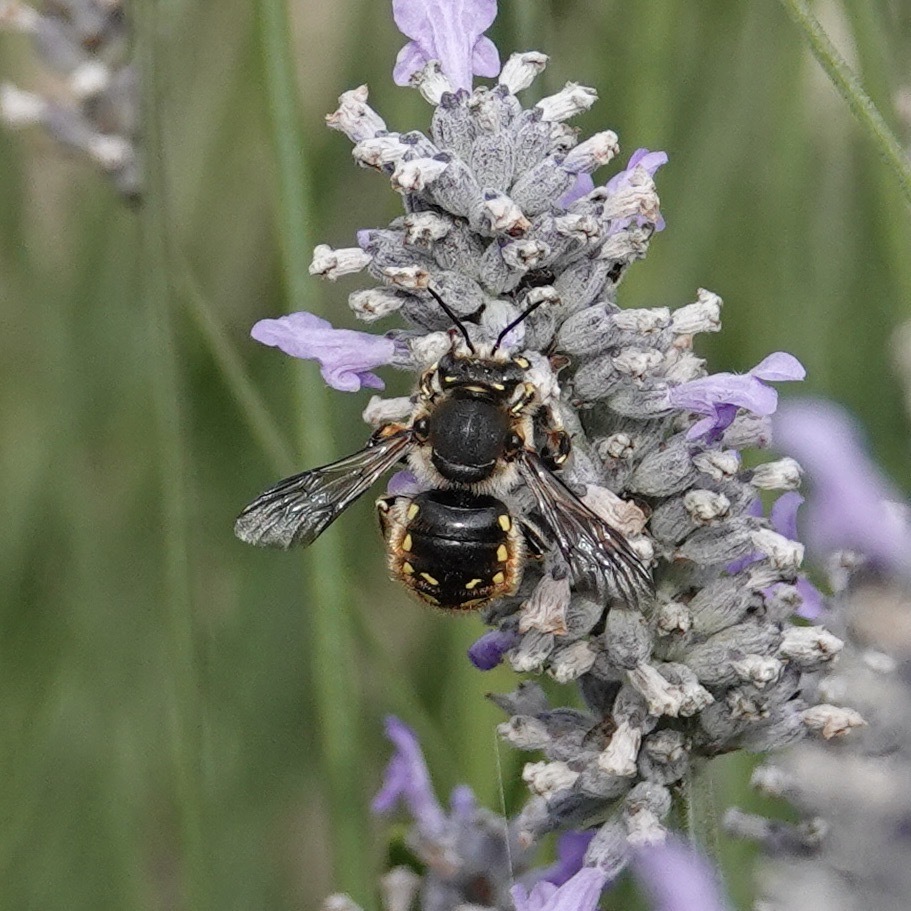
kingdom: Animalia
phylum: Arthropoda
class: Insecta
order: Hymenoptera
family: Megachilidae
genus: Anthidium
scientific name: Anthidium manicatum
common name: Wool carder bee
